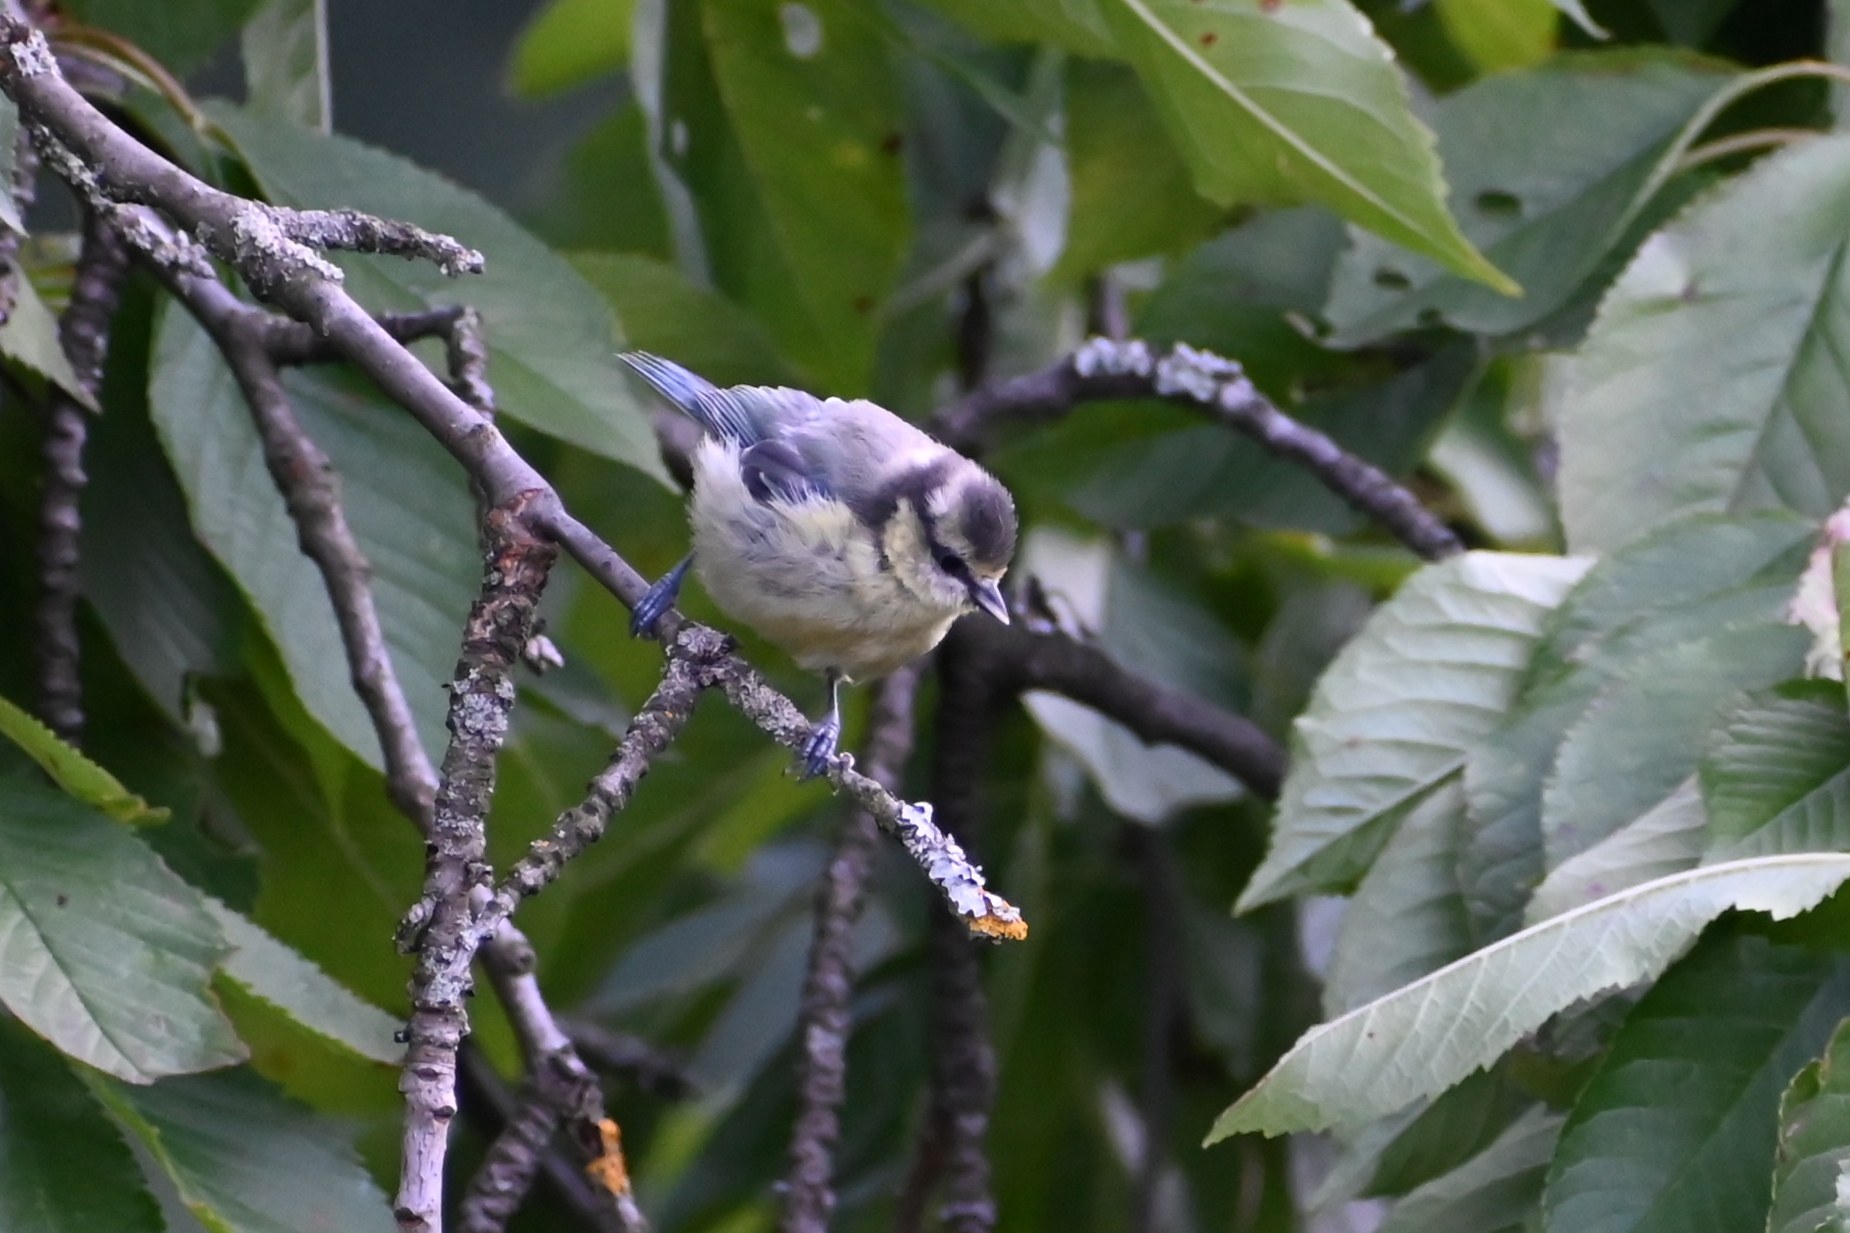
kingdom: Animalia
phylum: Chordata
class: Aves
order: Passeriformes
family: Paridae
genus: Cyanistes
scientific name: Cyanistes caeruleus
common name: Eurasian blue tit
